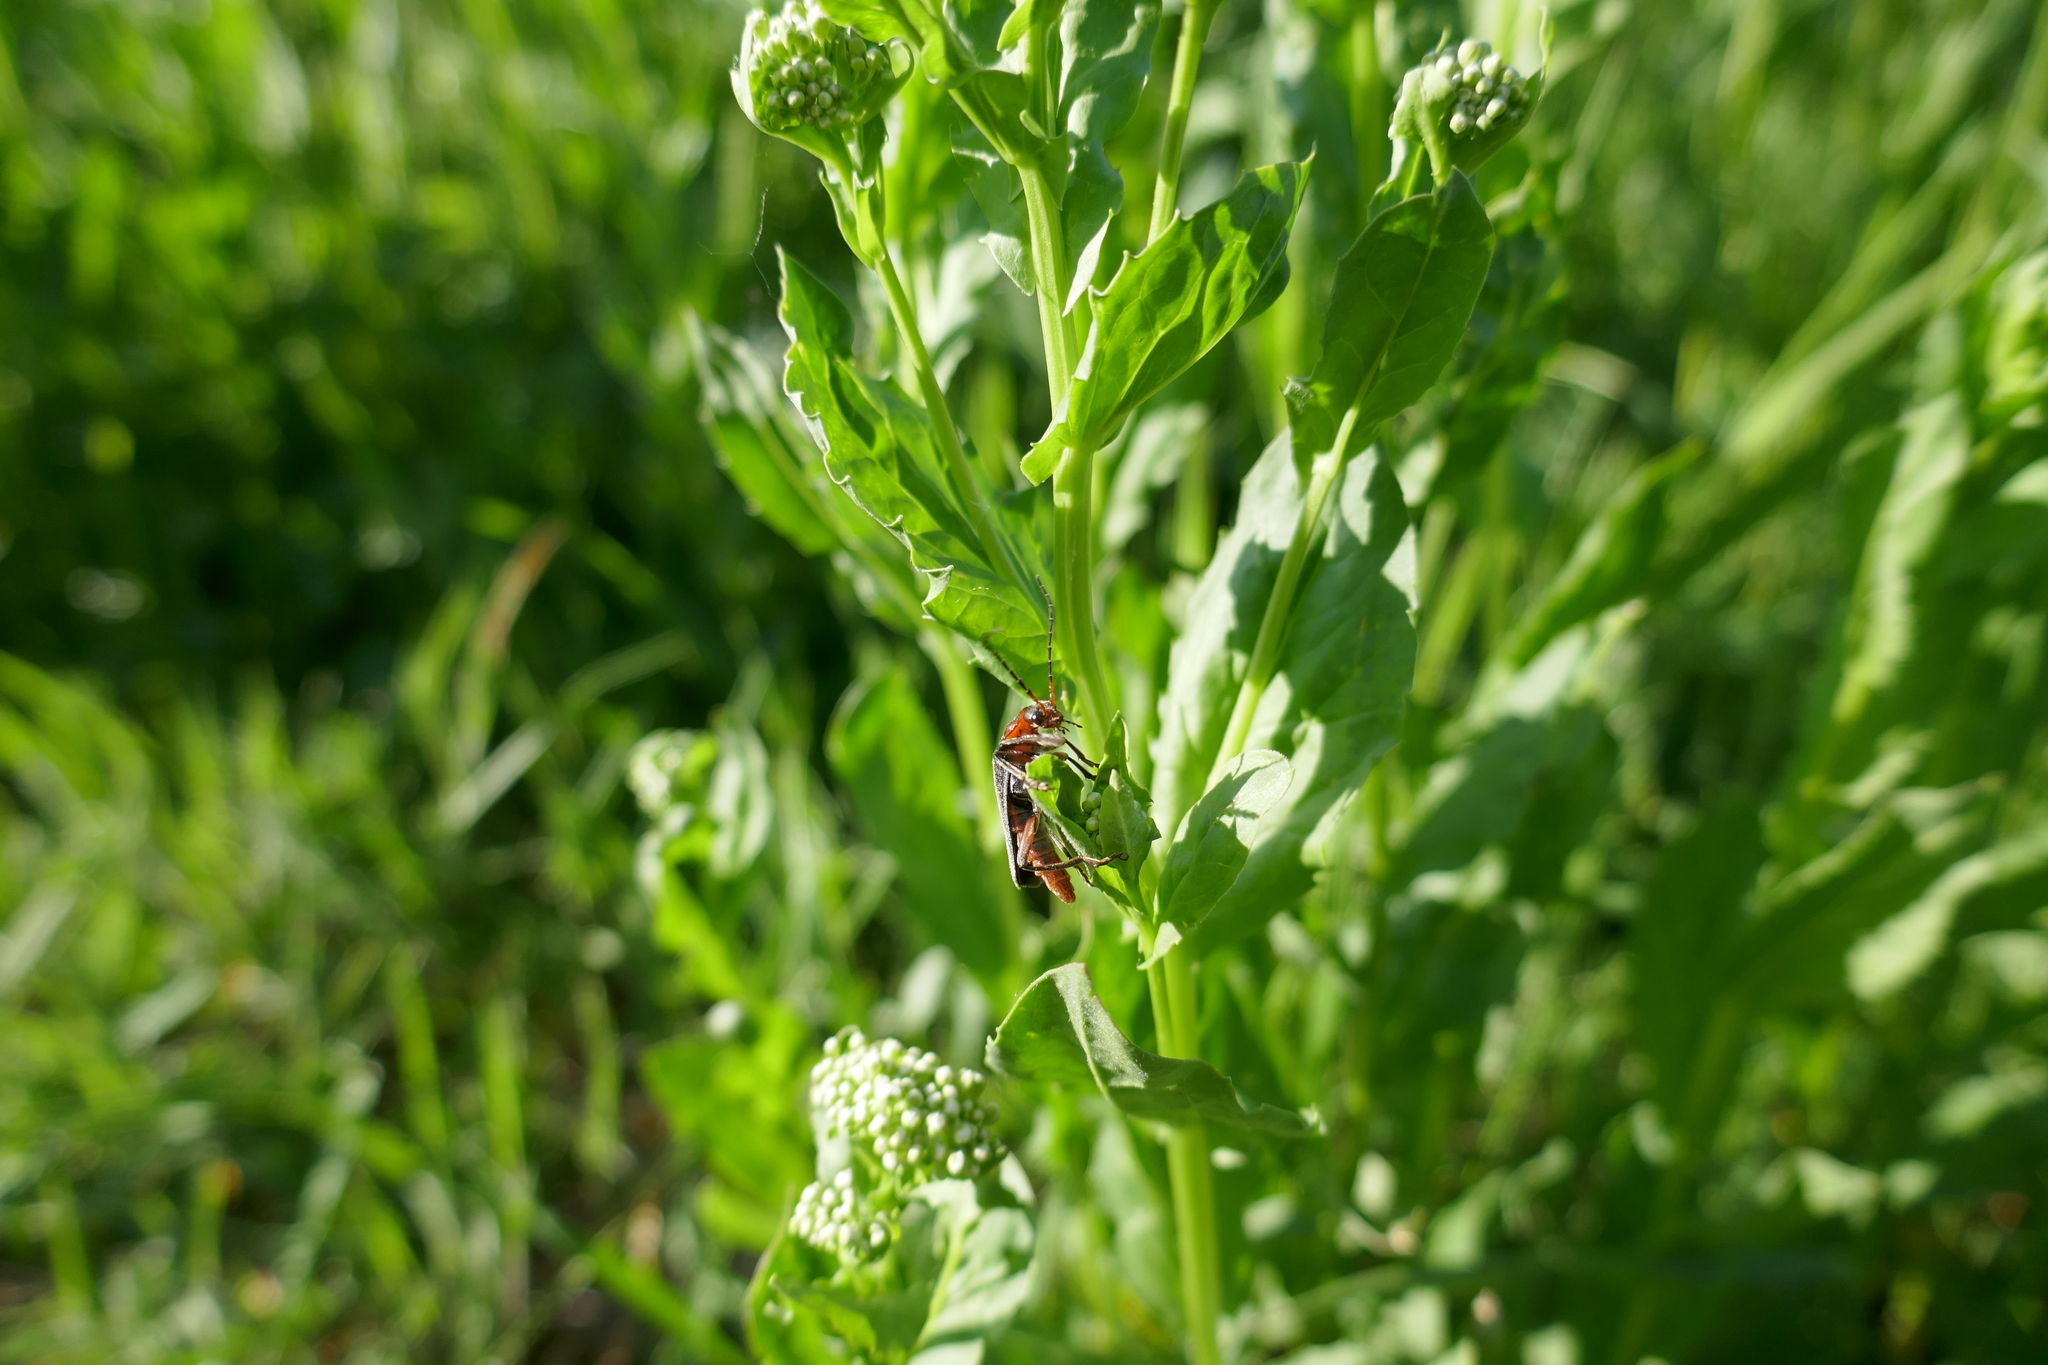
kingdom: Animalia
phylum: Arthropoda
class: Insecta
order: Coleoptera
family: Cantharidae
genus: Cantharis
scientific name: Cantharis rustica
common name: Soldier beetle
